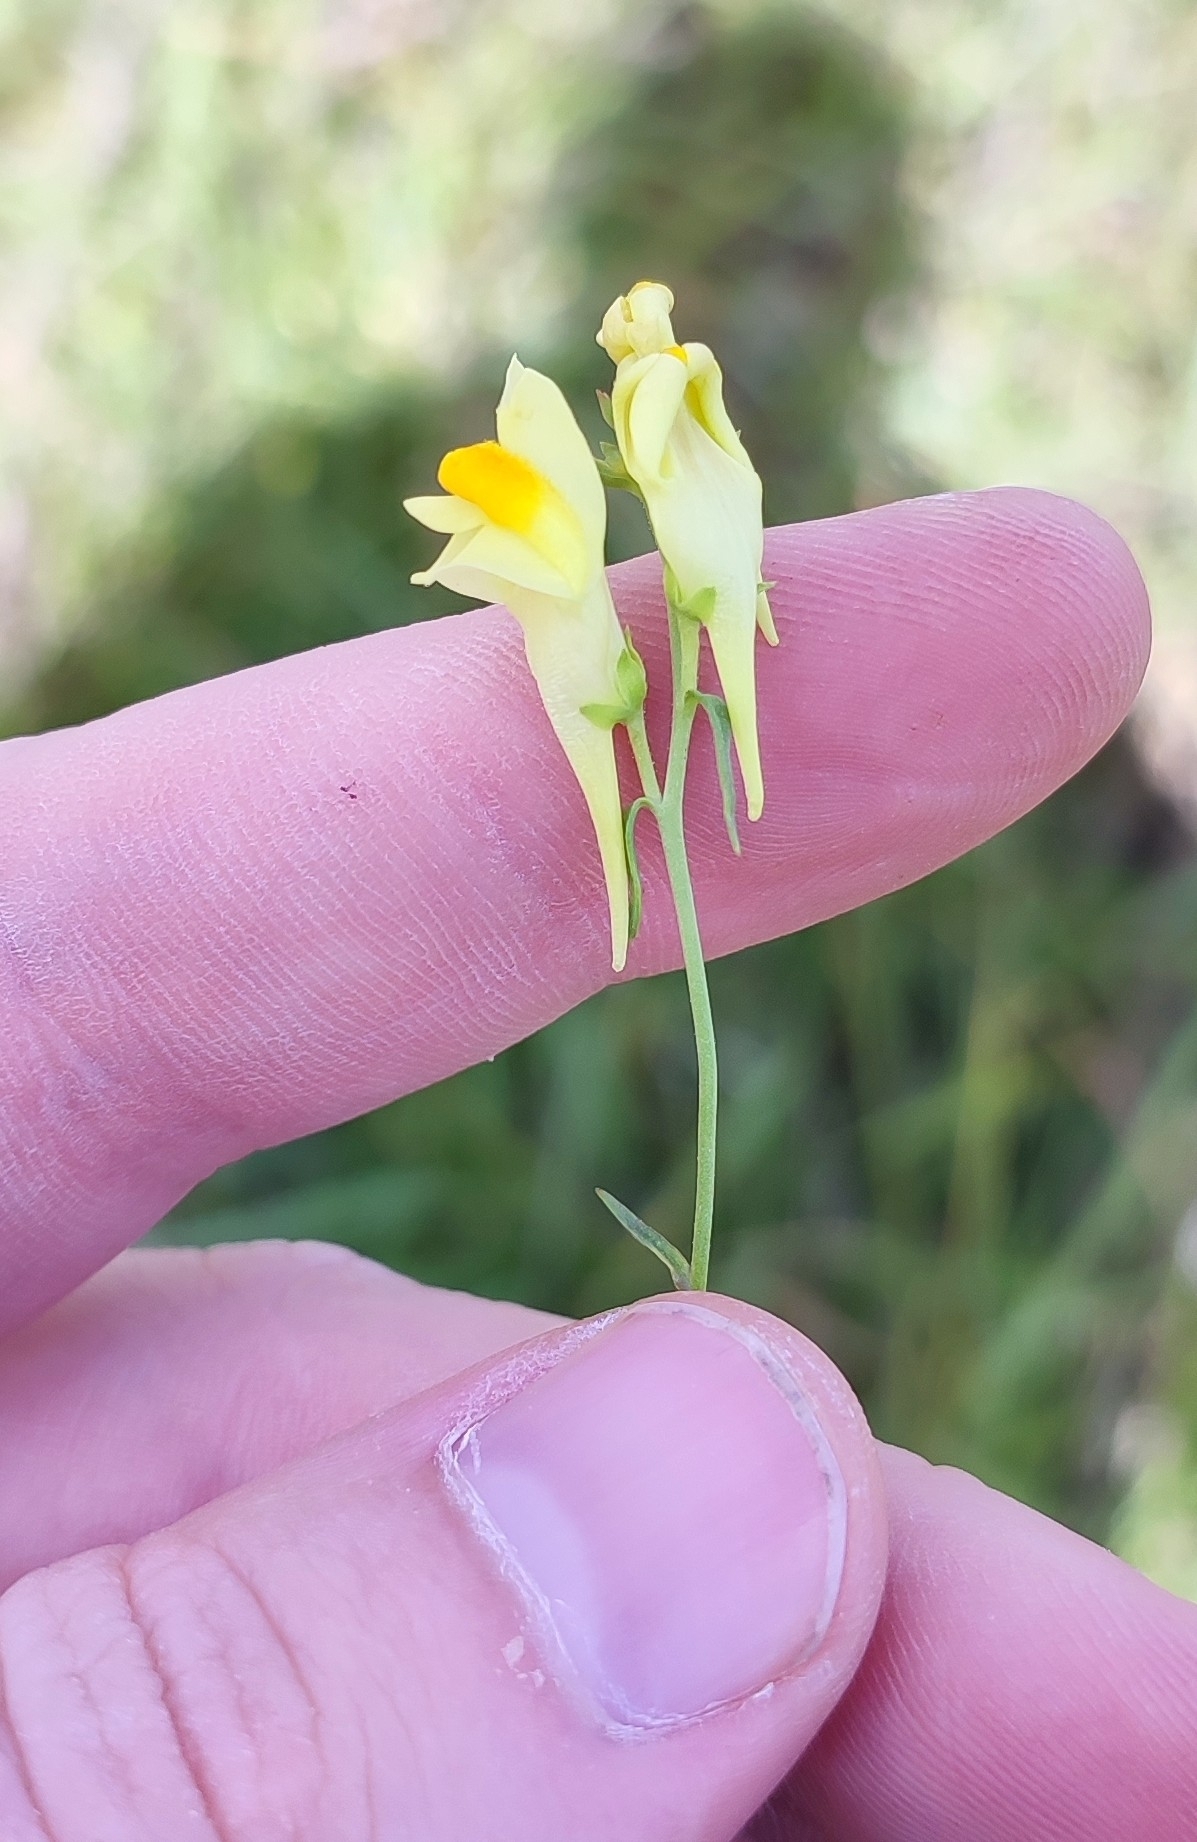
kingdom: Plantae
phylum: Tracheophyta
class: Magnoliopsida
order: Lamiales
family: Plantaginaceae
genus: Linaria
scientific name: Linaria vulgaris
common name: Butter and eggs
